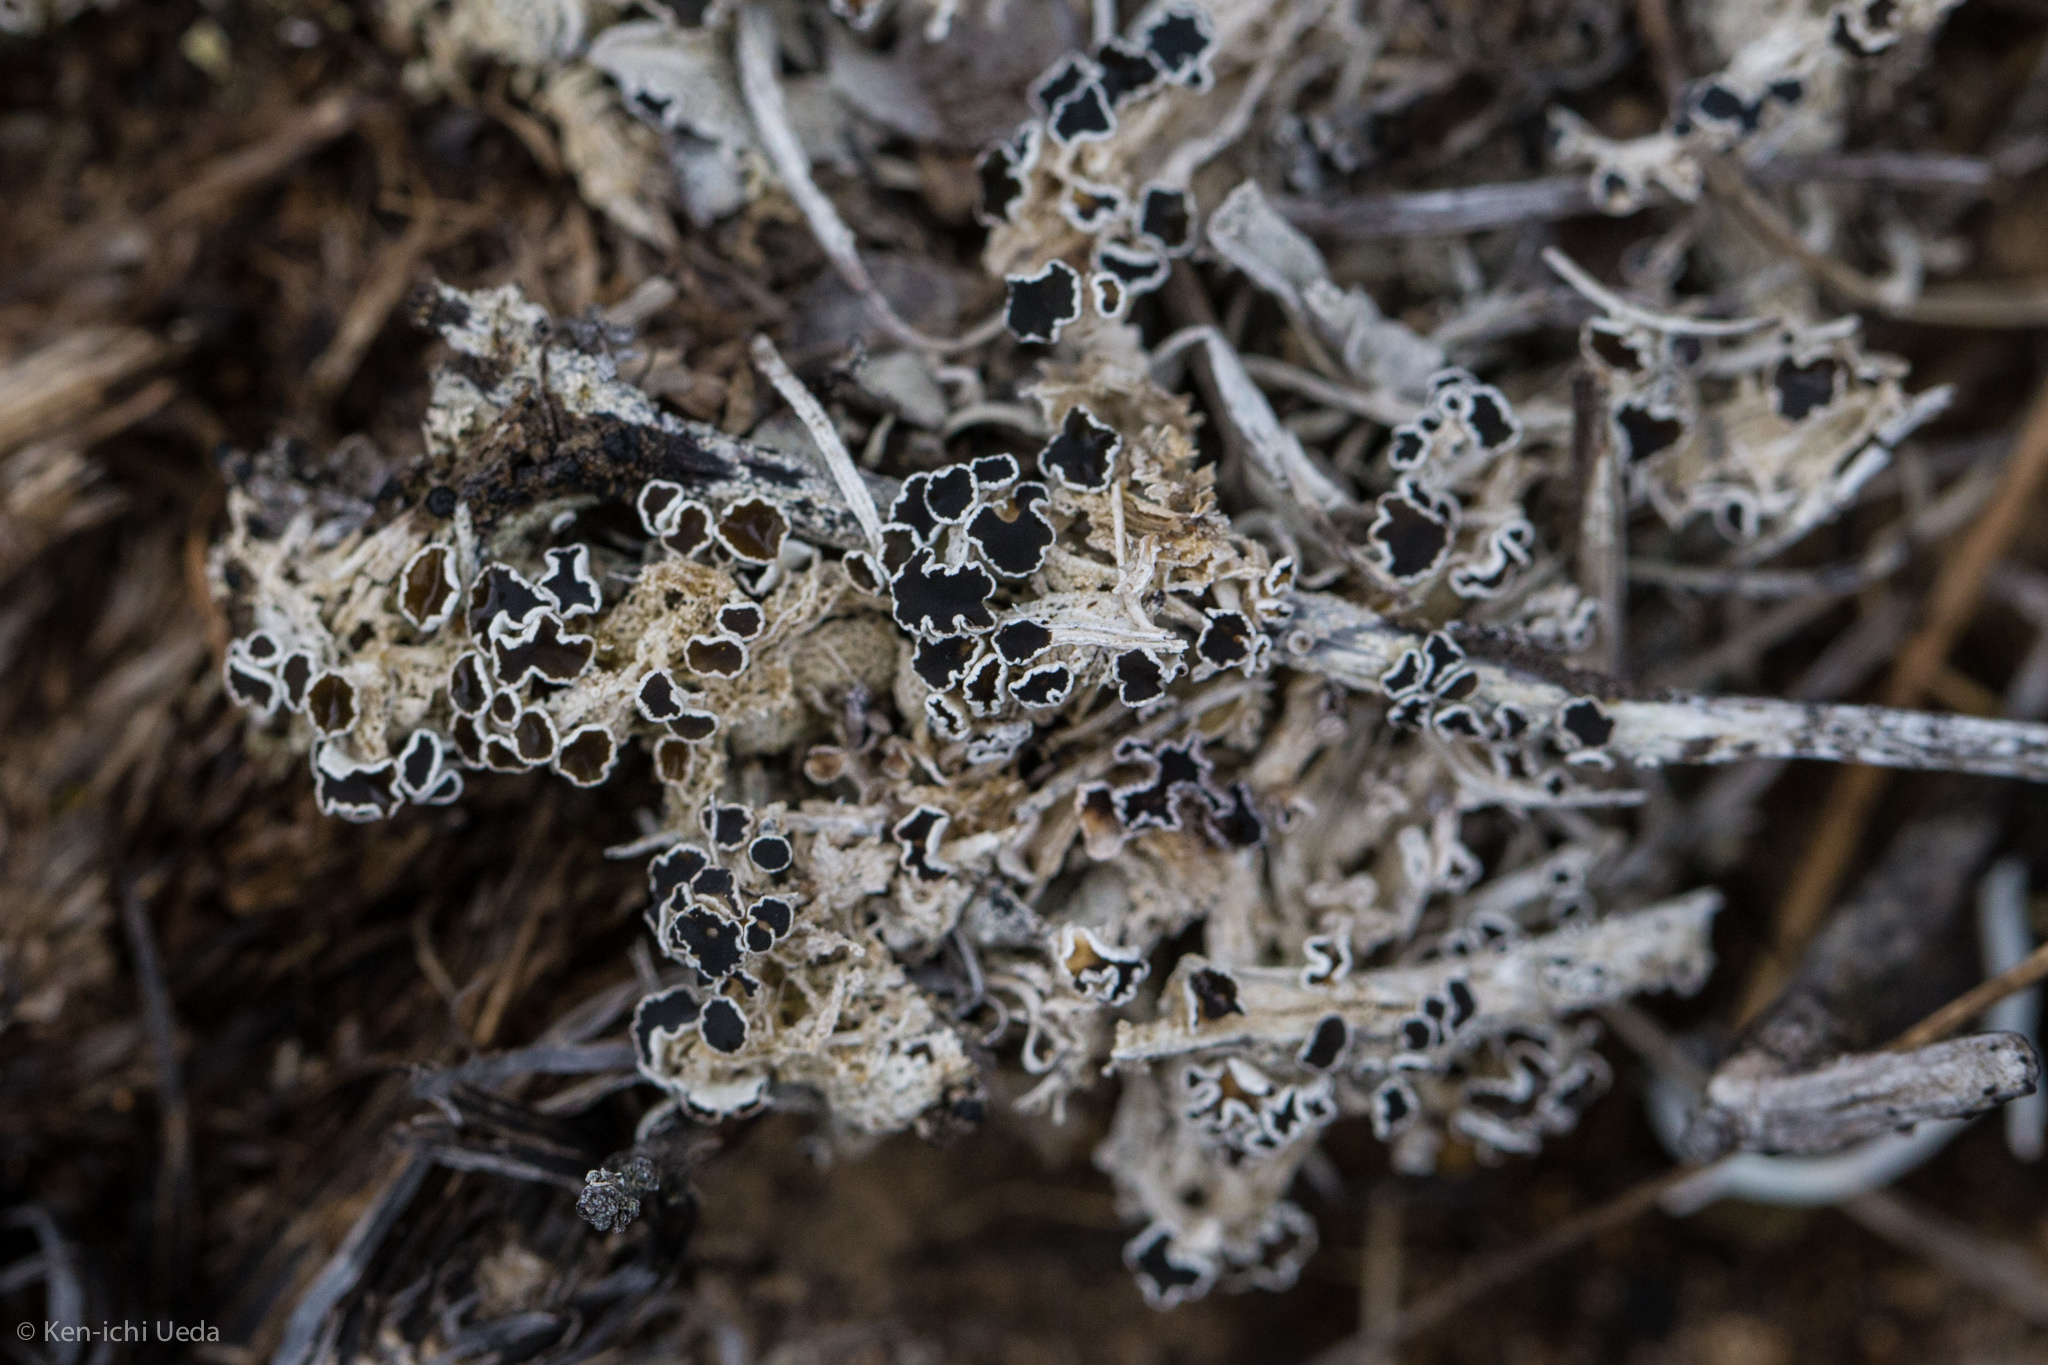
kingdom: Fungi
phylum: Ascomycota
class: Lecanoromycetes
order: Lecanorales
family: Lecanoraceae
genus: Lecanora
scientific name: Lecanora epibryon
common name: Mossbane rim lichen
